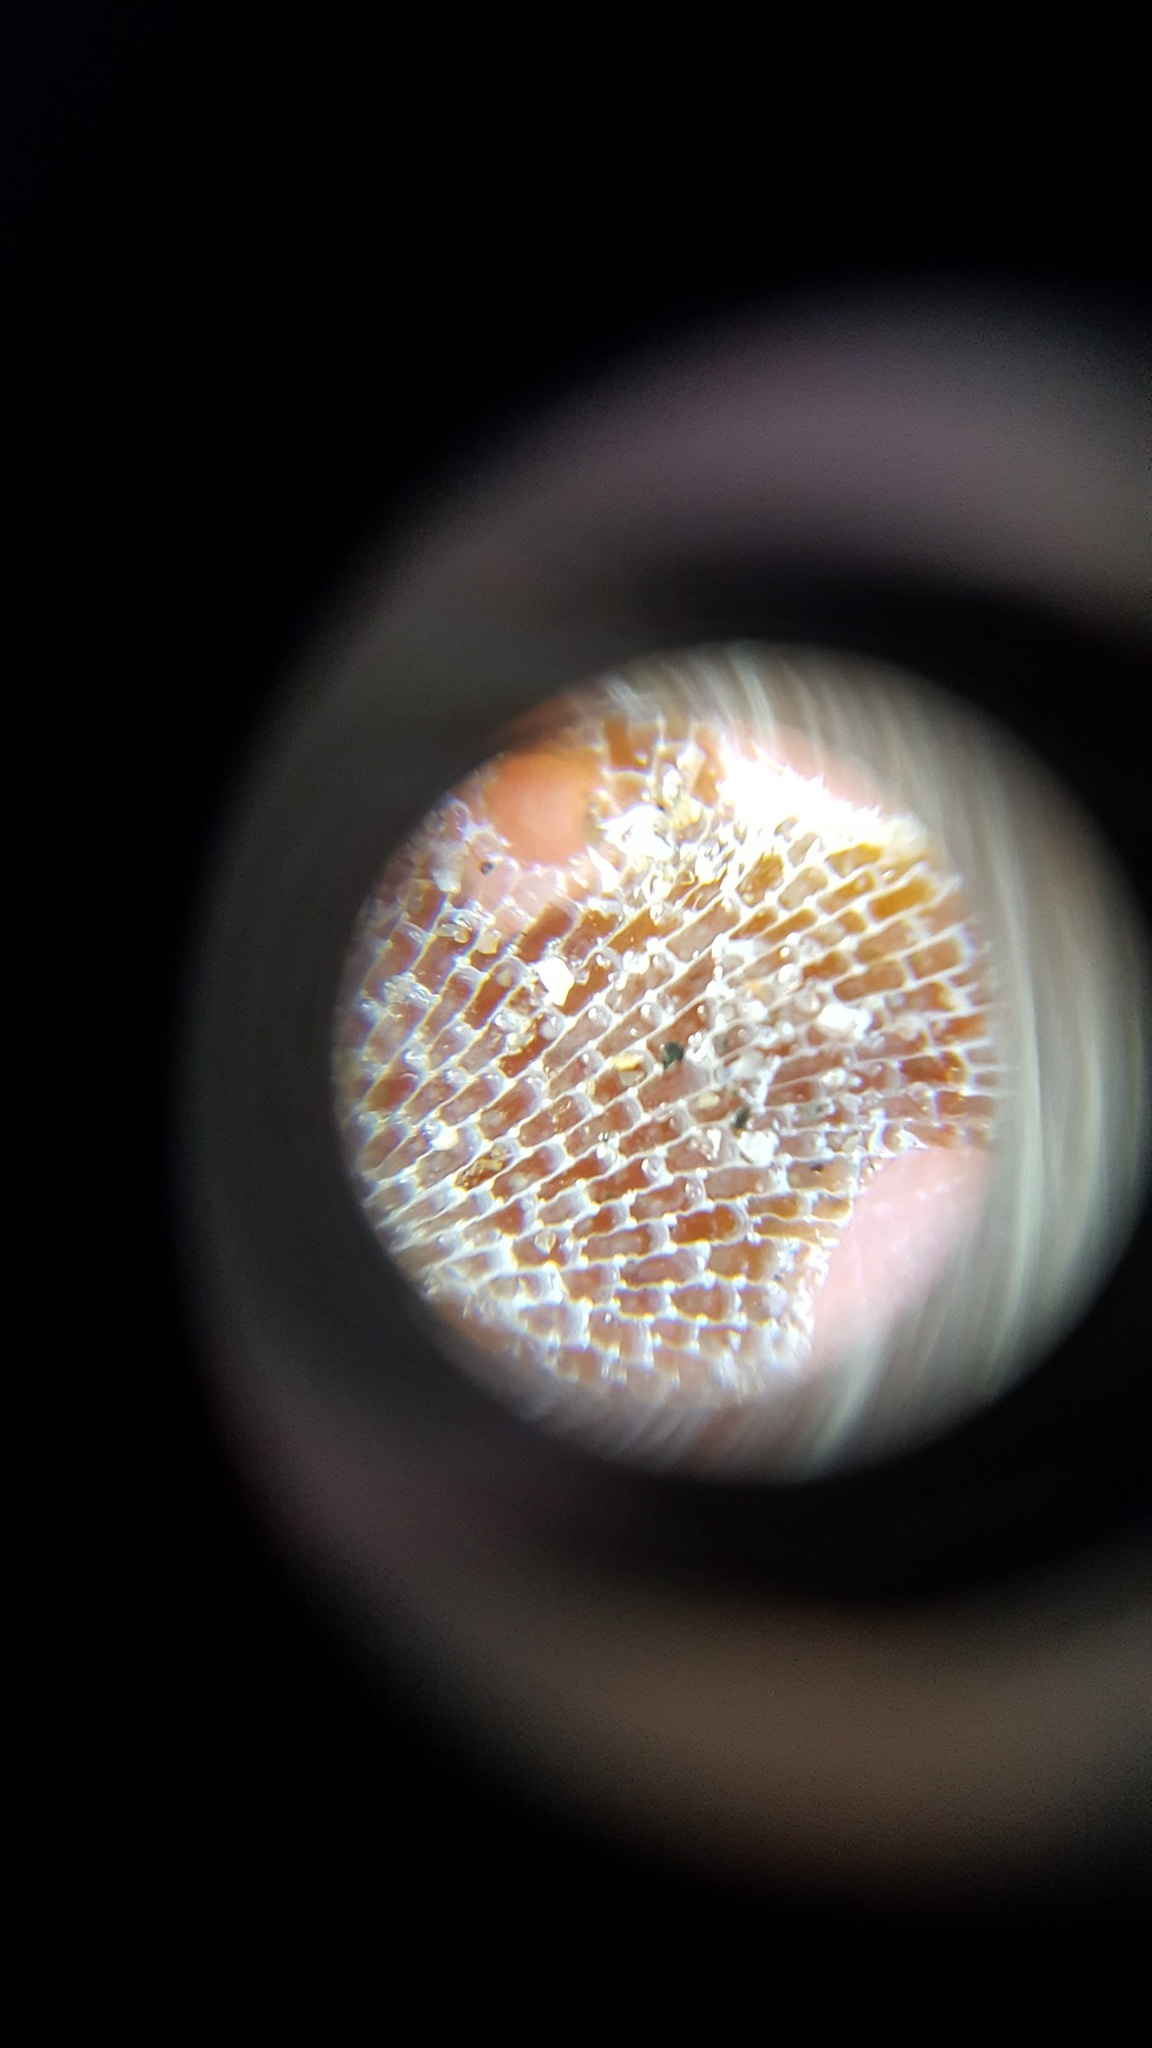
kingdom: Animalia
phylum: Bryozoa
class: Gymnolaemata
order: Cheilostomatida
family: Membraniporidae
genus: Membranipora
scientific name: Membranipora membranacea
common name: Sea mat
